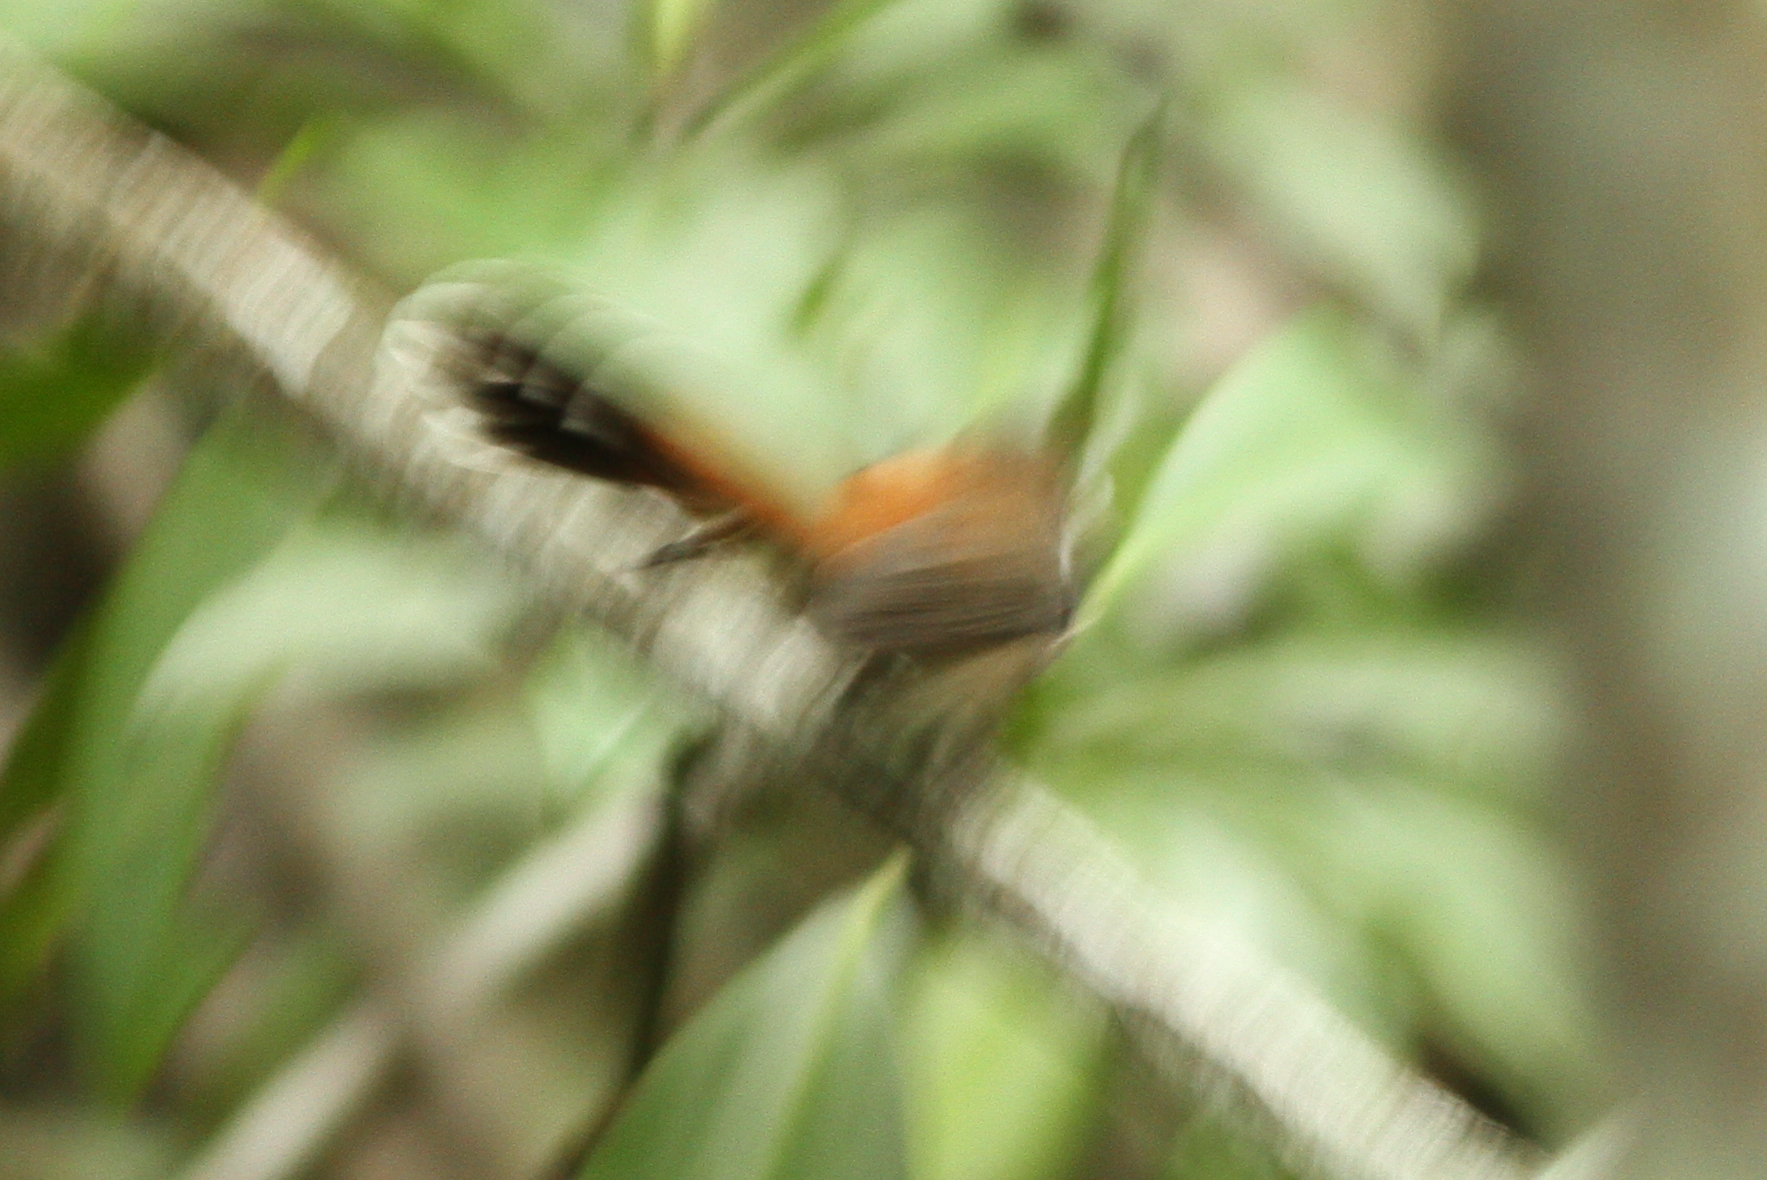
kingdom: Animalia
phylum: Chordata
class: Aves
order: Passeriformes
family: Rhipiduridae
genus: Rhipidura
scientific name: Rhipidura rufifrons
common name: Rufous fantail
